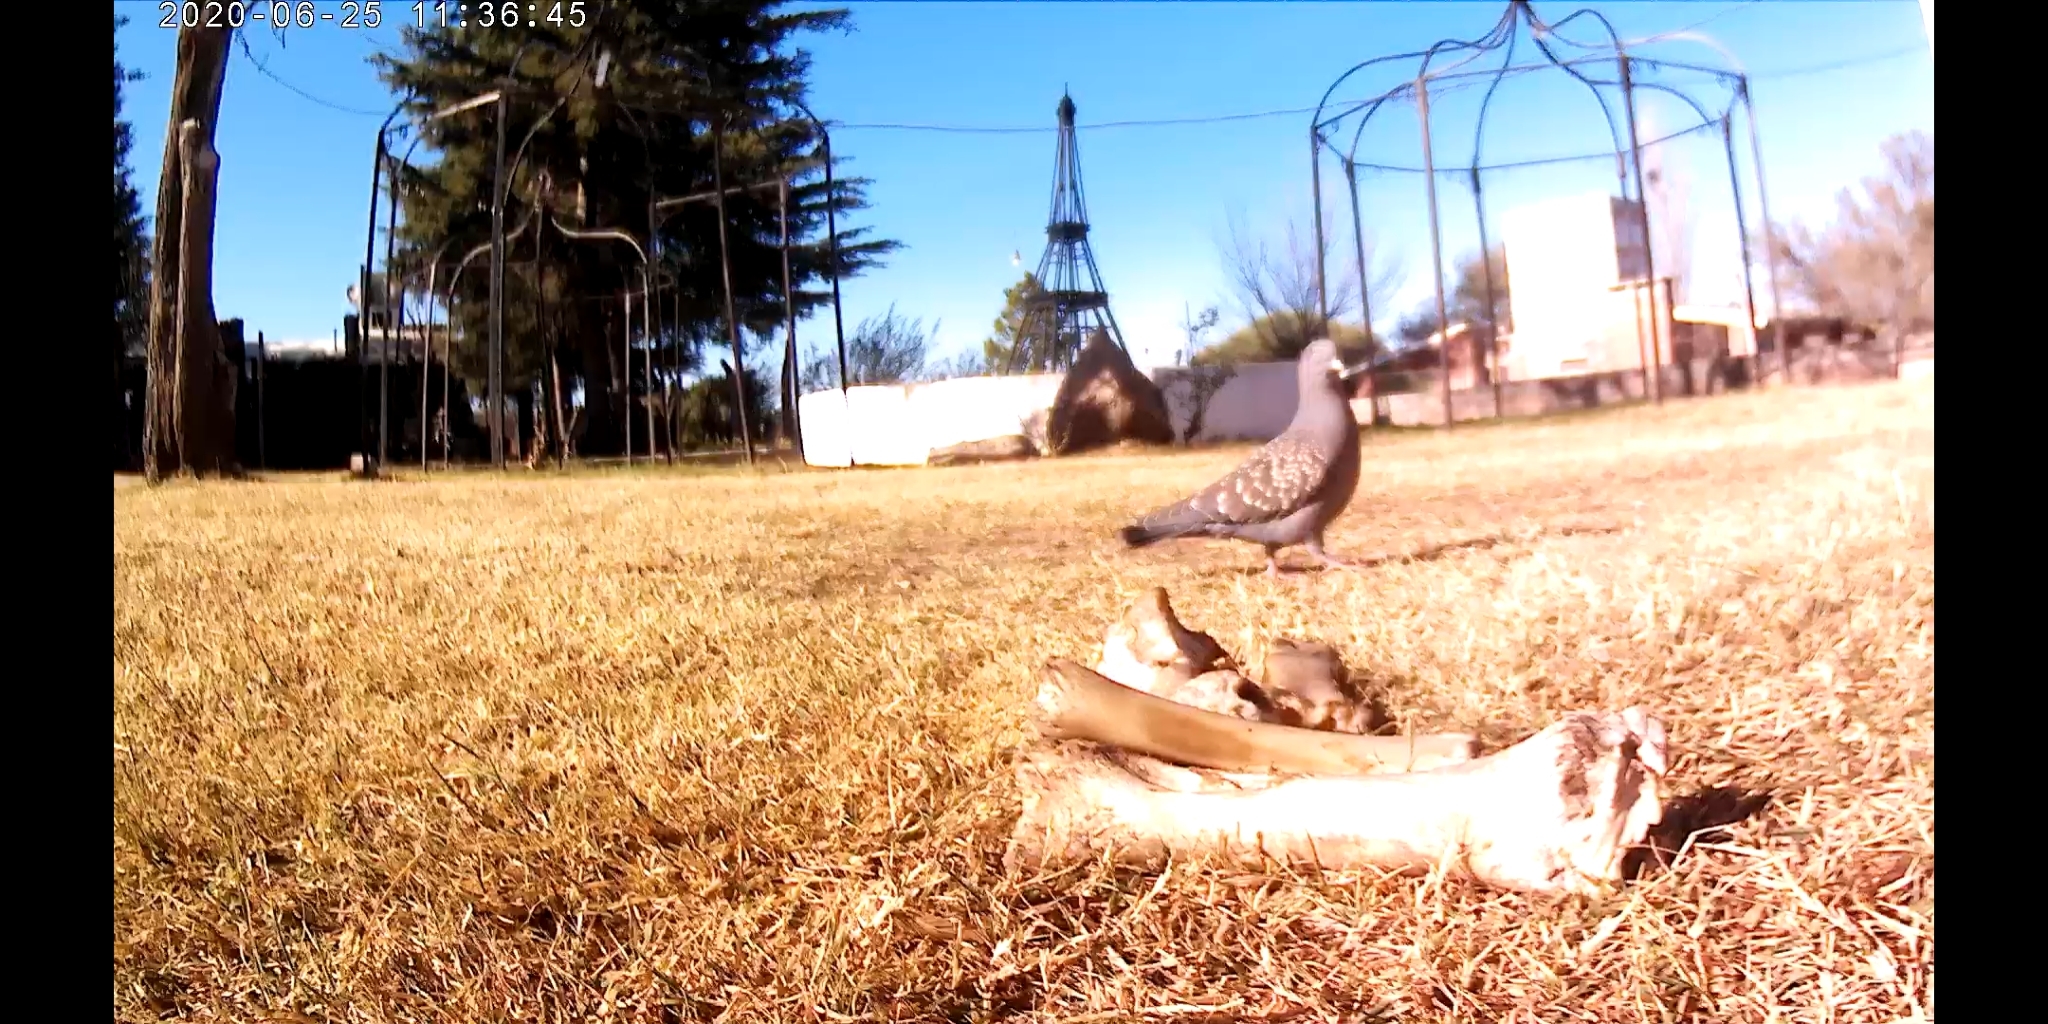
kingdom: Animalia
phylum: Chordata
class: Aves
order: Columbiformes
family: Columbidae
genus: Patagioenas
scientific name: Patagioenas maculosa
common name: Spot-winged pigeon
